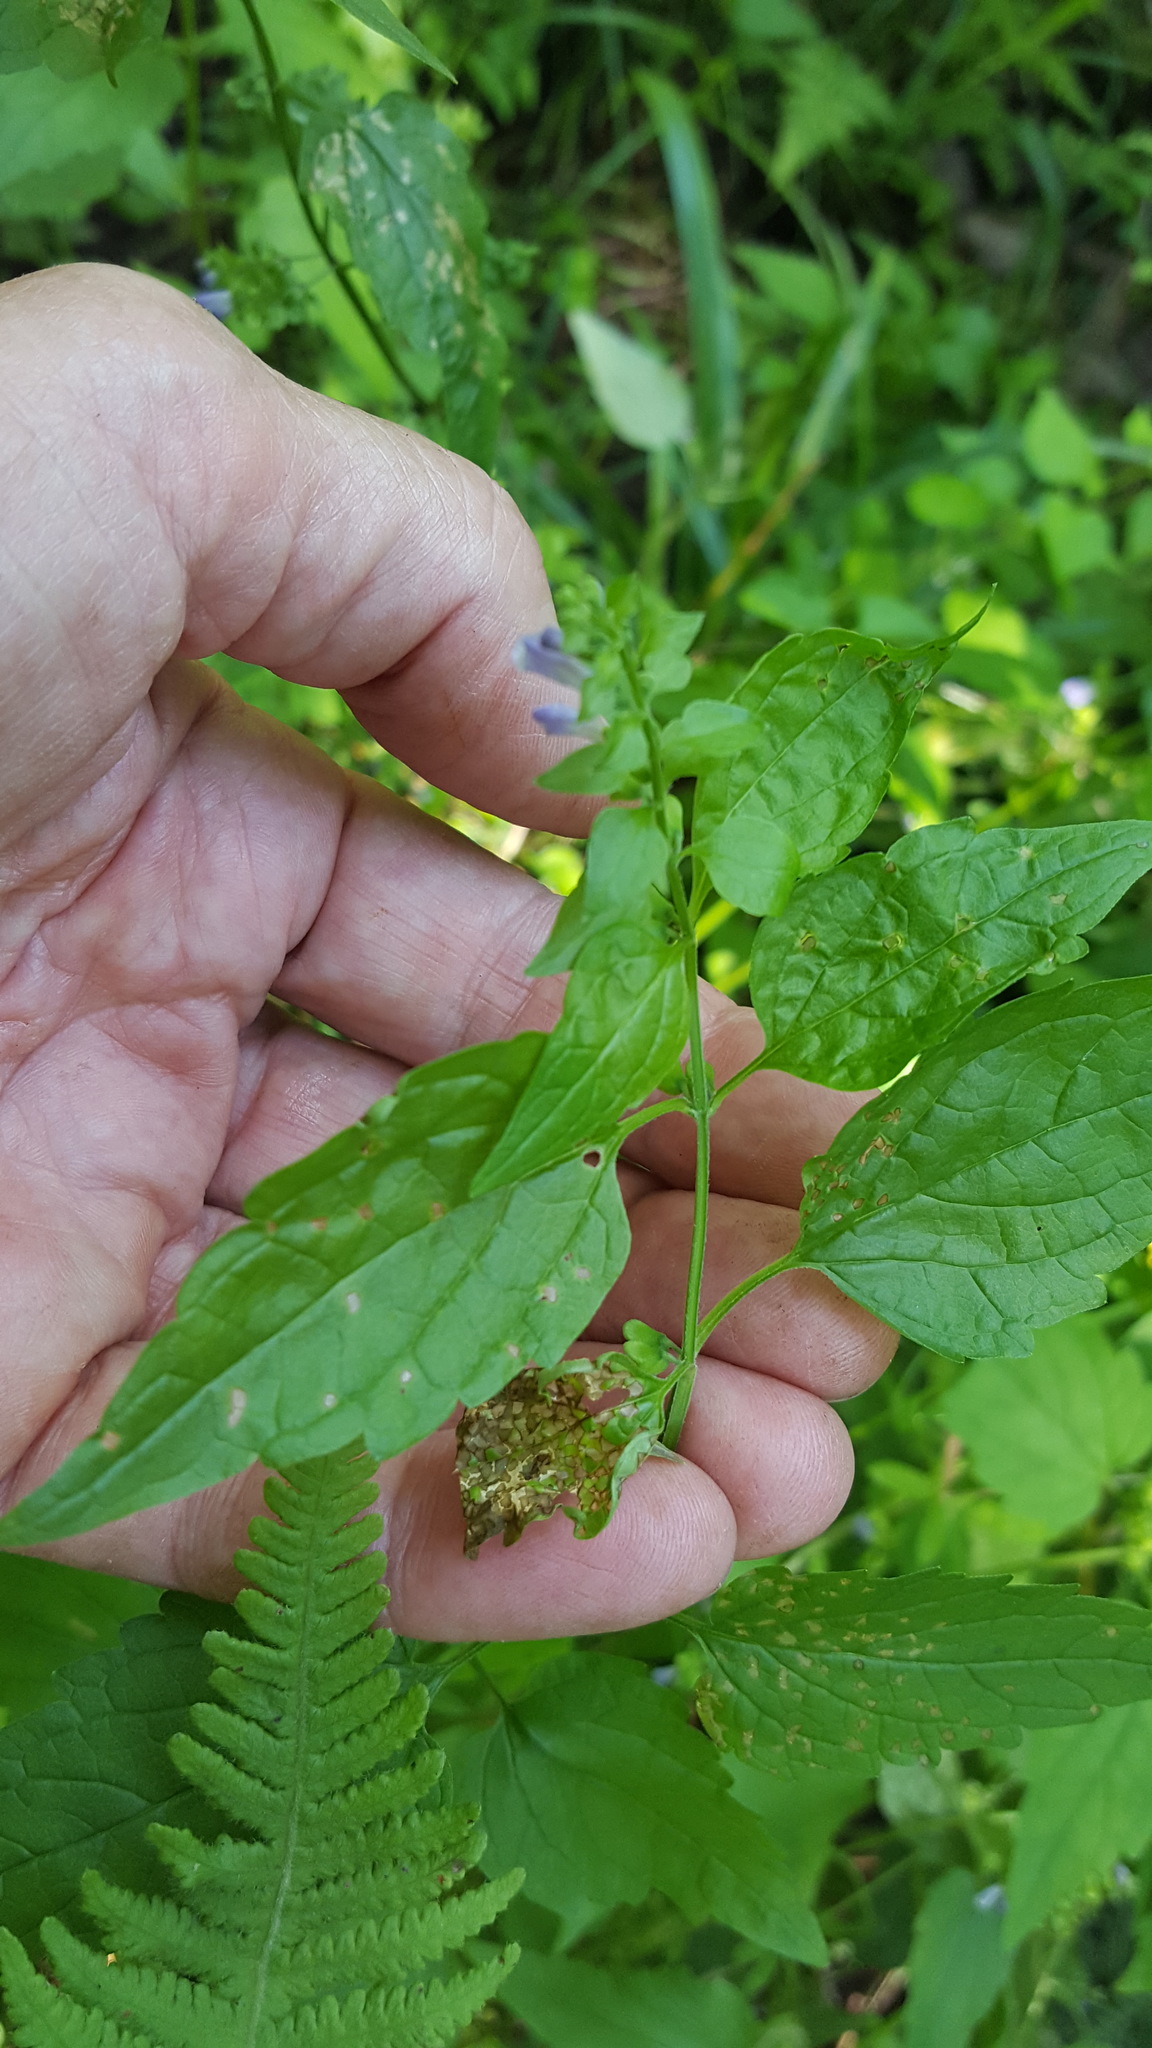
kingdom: Plantae
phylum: Tracheophyta
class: Magnoliopsida
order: Lamiales
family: Lamiaceae
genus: Scutellaria
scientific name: Scutellaria lateriflora
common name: Blue skullcap
